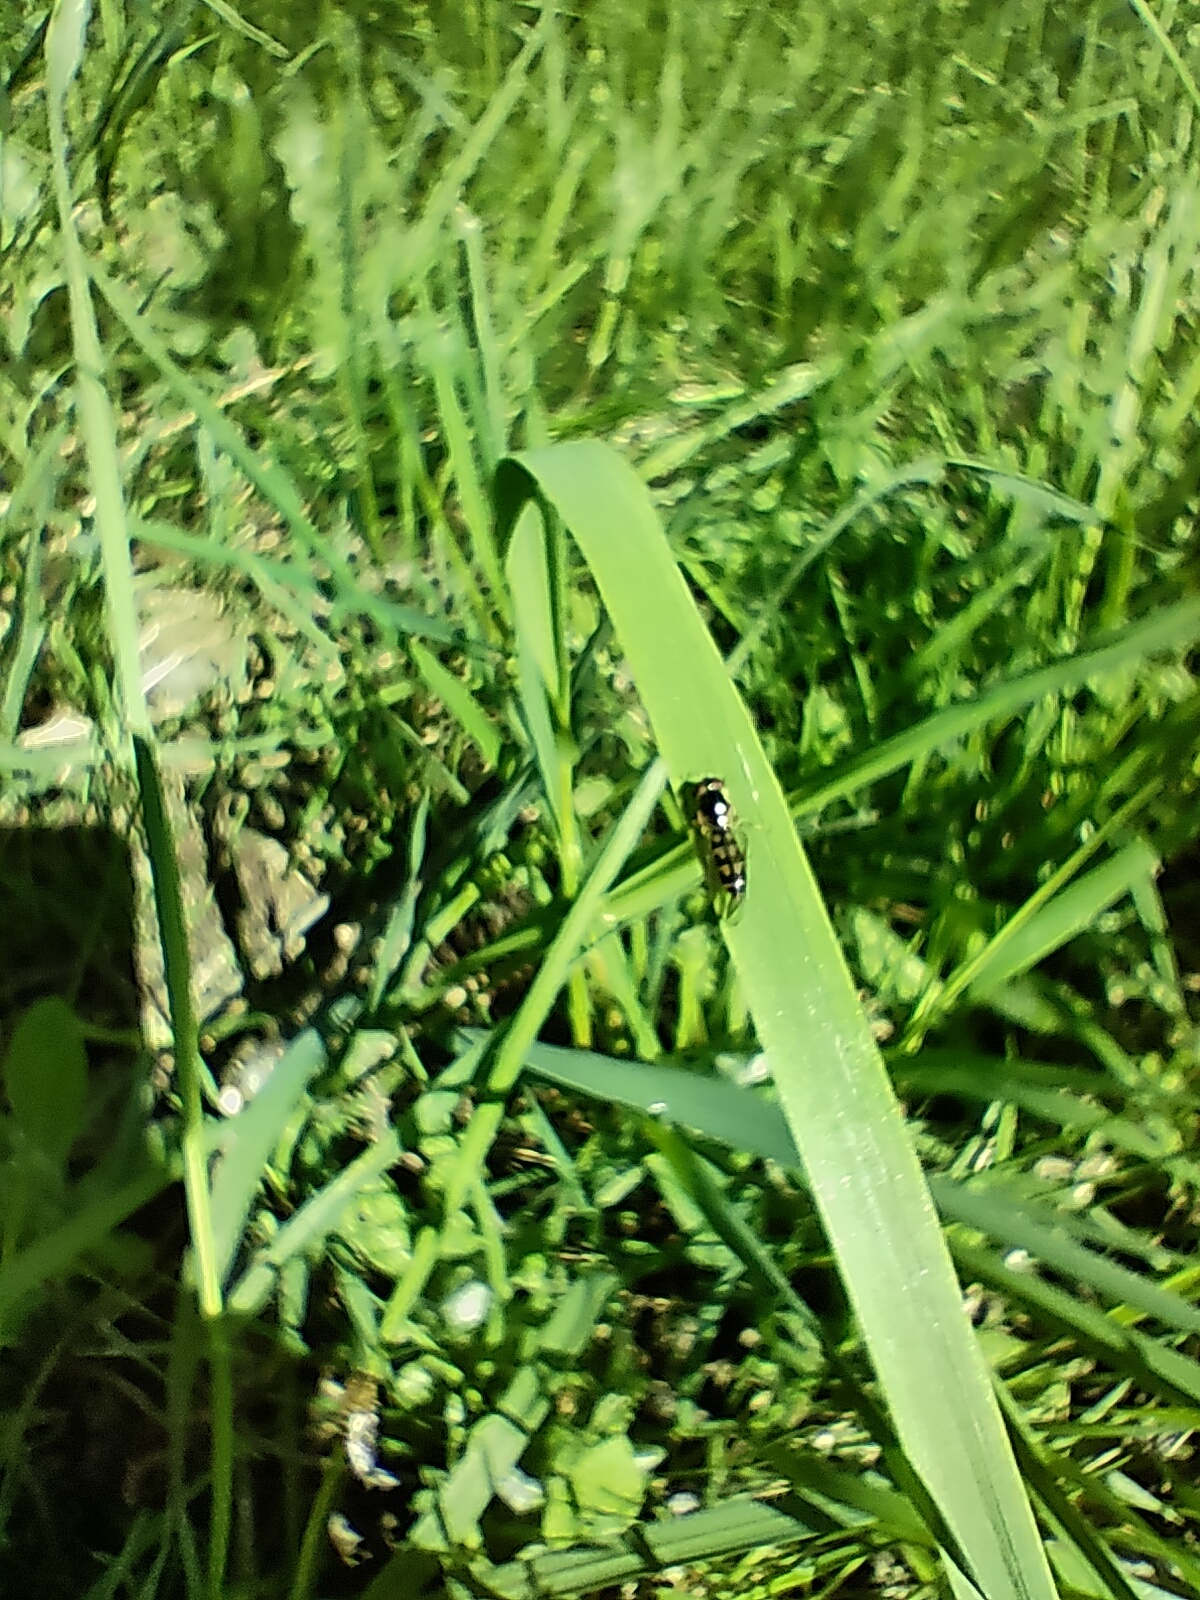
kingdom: Animalia
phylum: Arthropoda
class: Insecta
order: Diptera
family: Syrphidae
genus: Melanostoma
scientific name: Melanostoma
